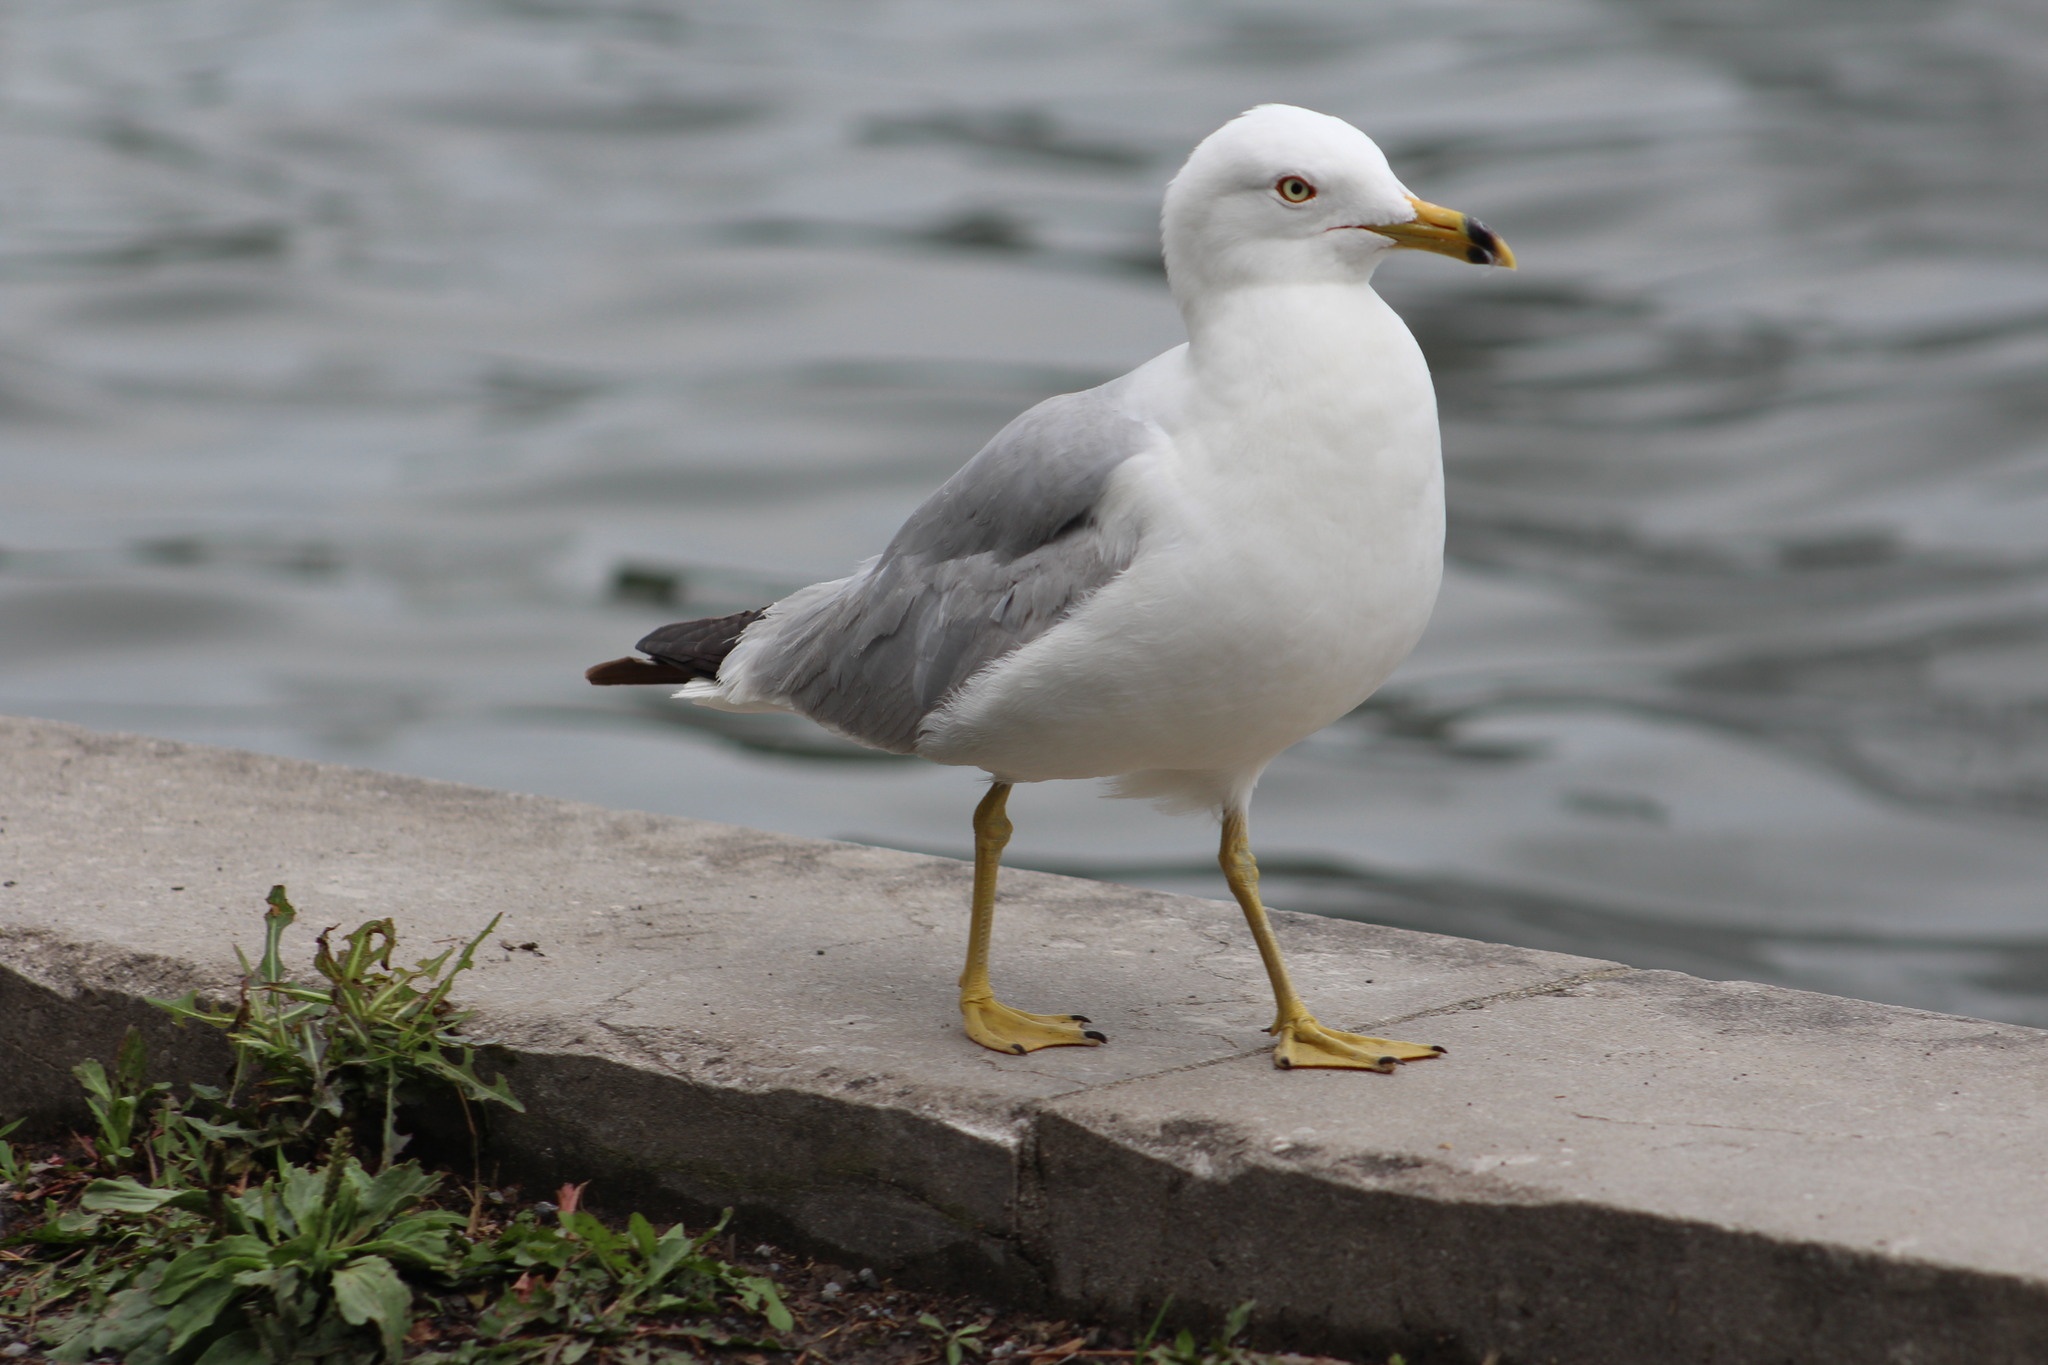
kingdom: Animalia
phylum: Chordata
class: Aves
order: Charadriiformes
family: Laridae
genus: Larus
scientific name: Larus delawarensis
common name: Ring-billed gull
